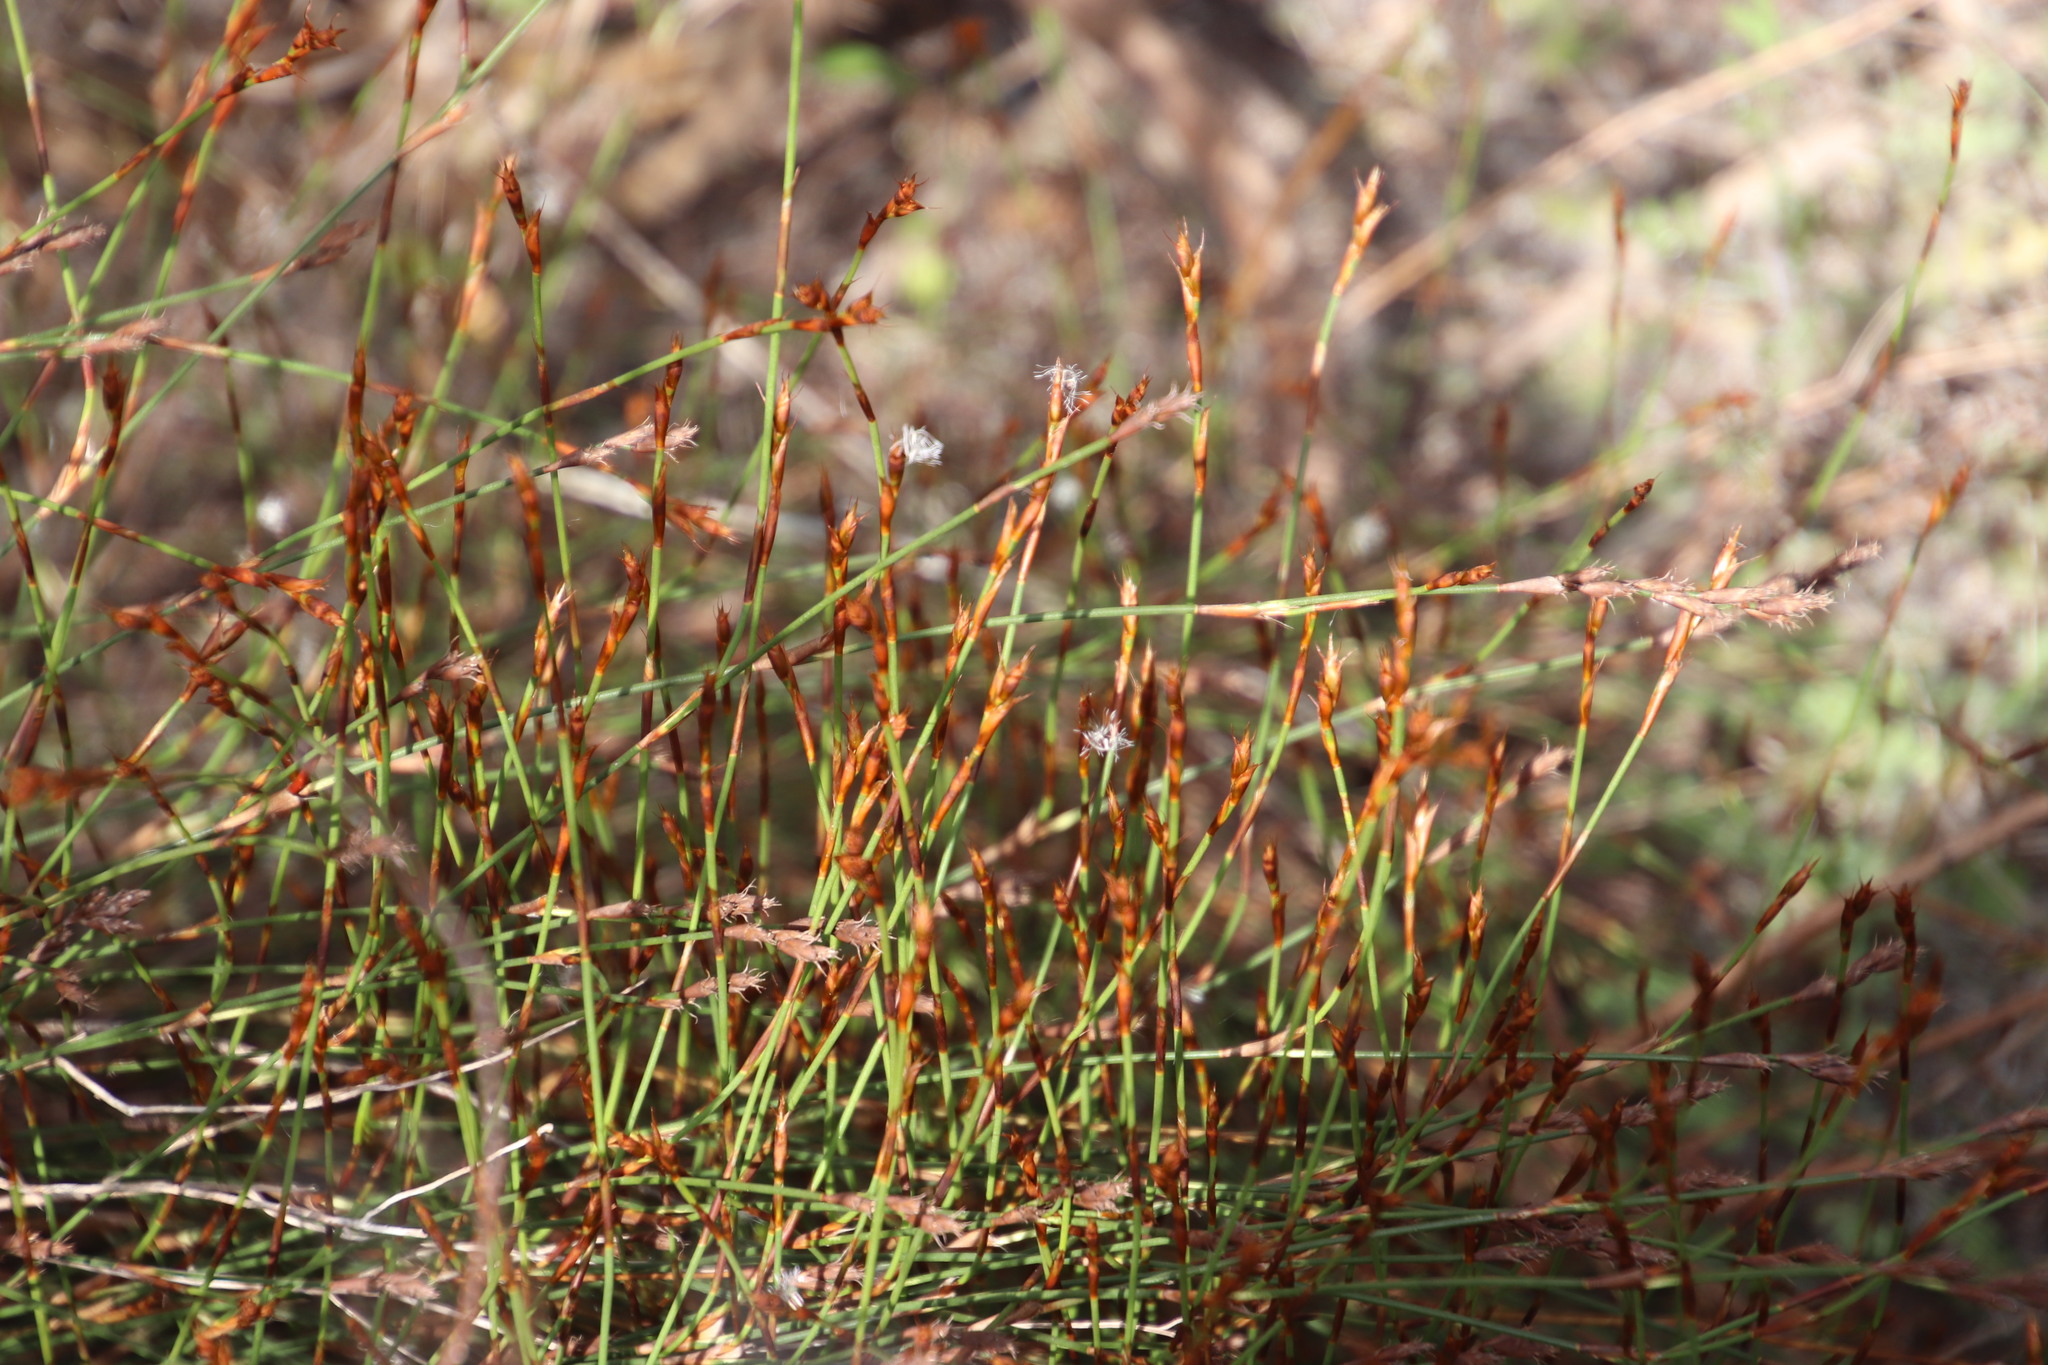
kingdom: Plantae
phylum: Tracheophyta
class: Liliopsida
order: Poales
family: Restionaceae
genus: Mastersiella
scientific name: Mastersiella digitata
